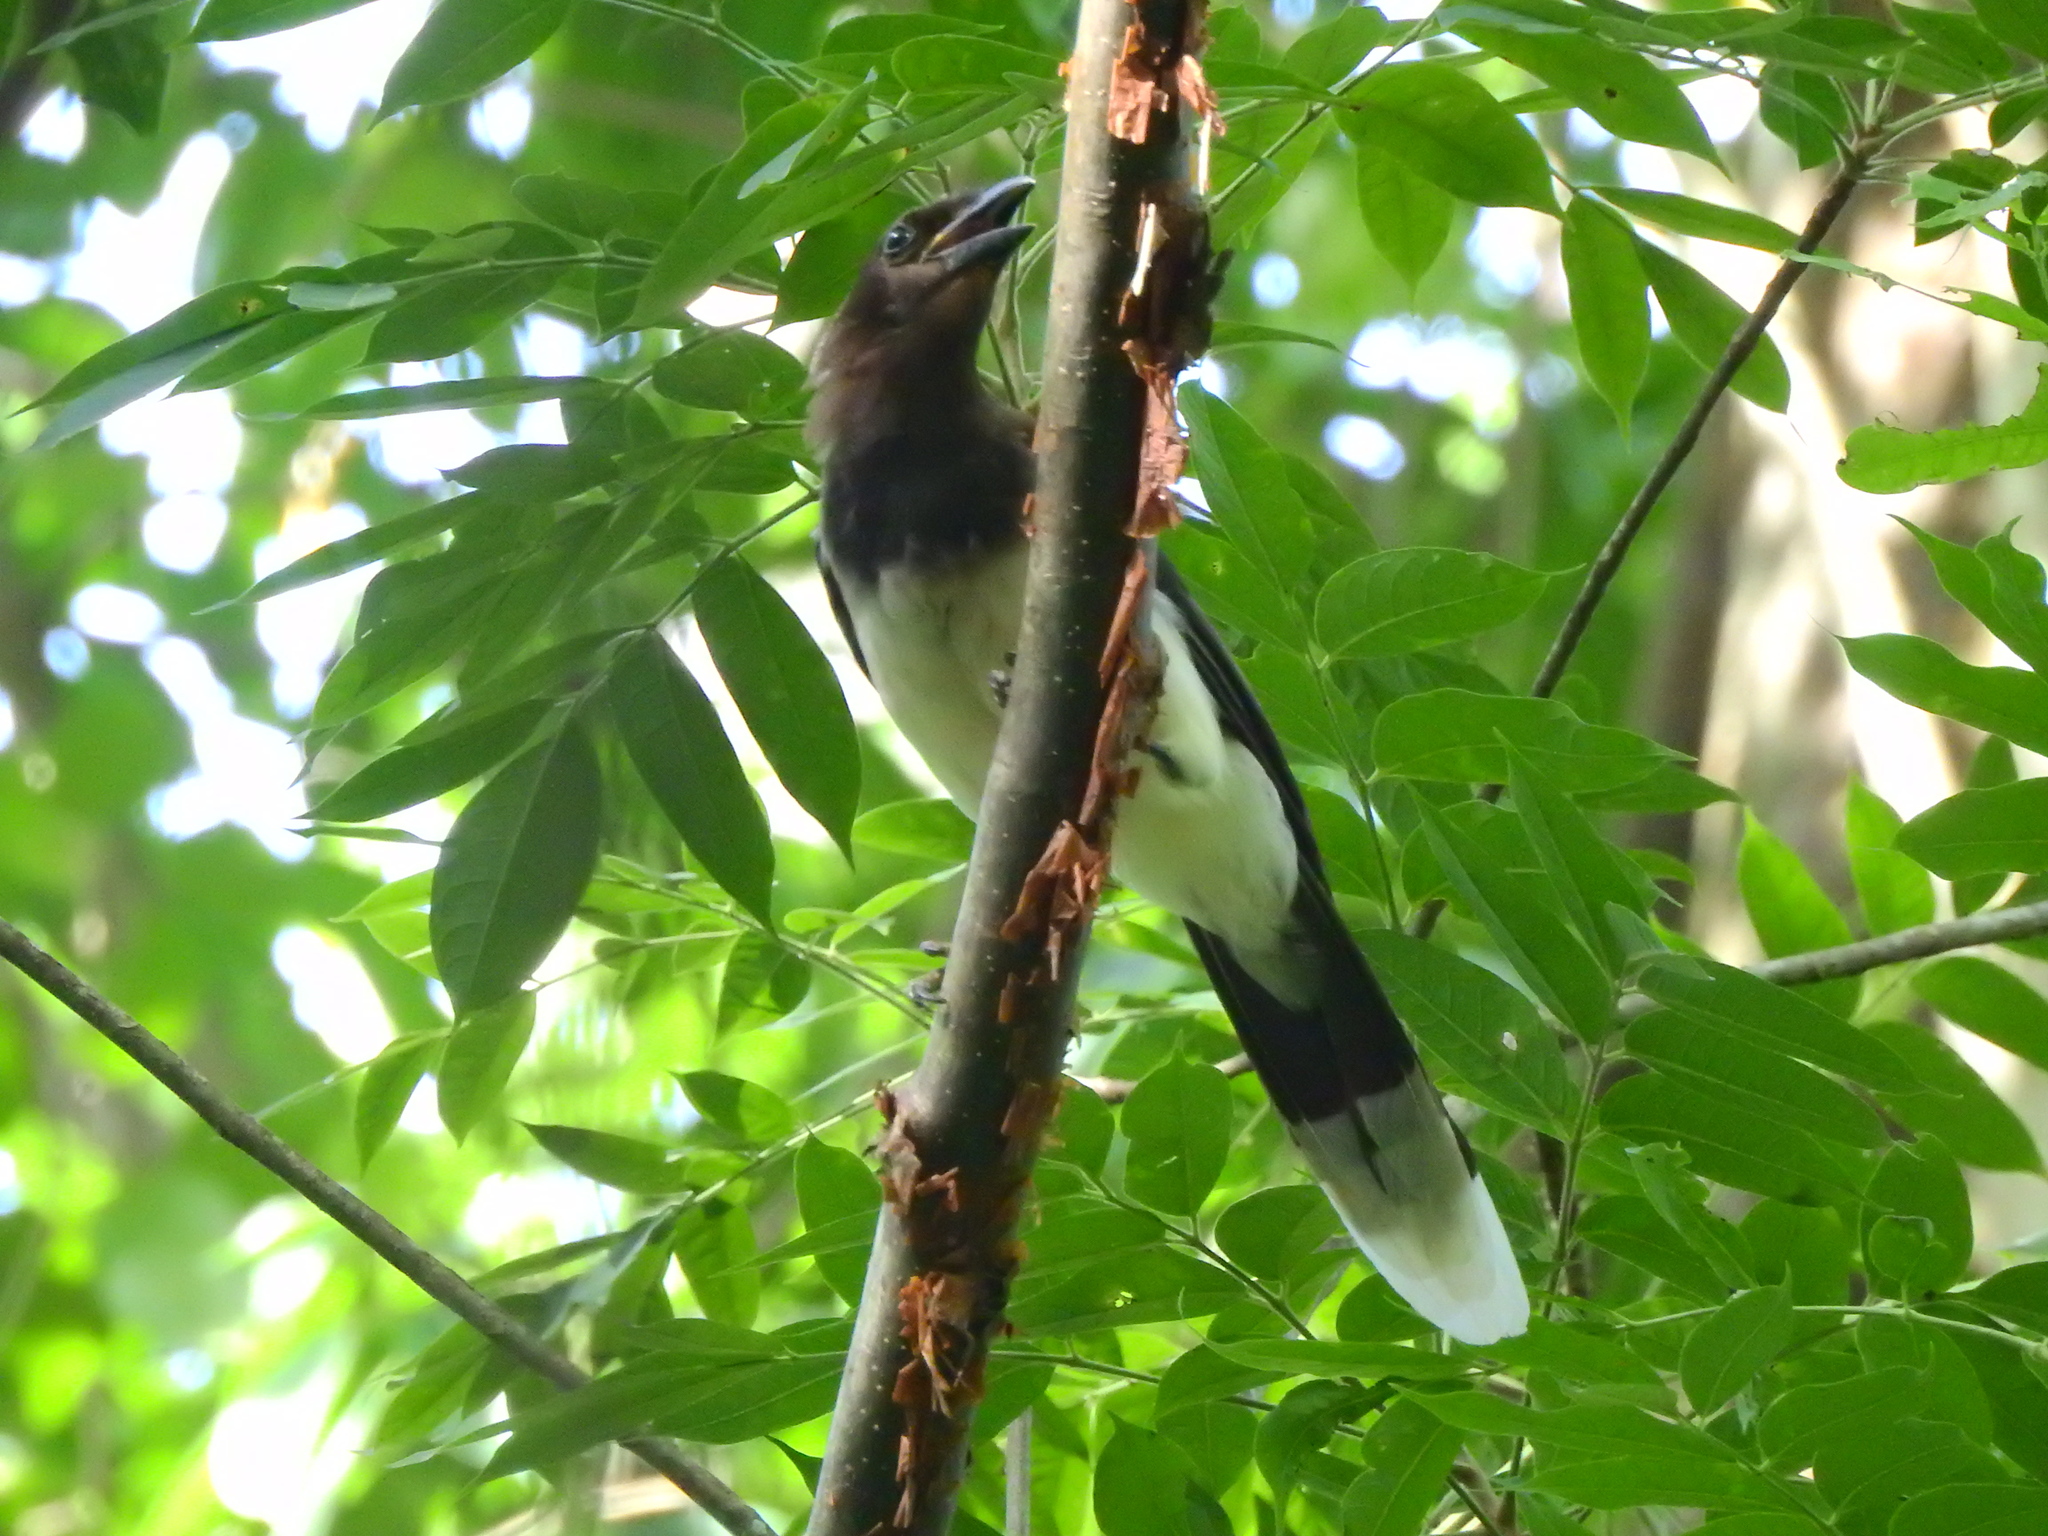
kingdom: Animalia
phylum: Chordata
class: Aves
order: Passeriformes
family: Corvidae
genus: Psilorhinus
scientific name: Psilorhinus morio
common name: Brown jay
